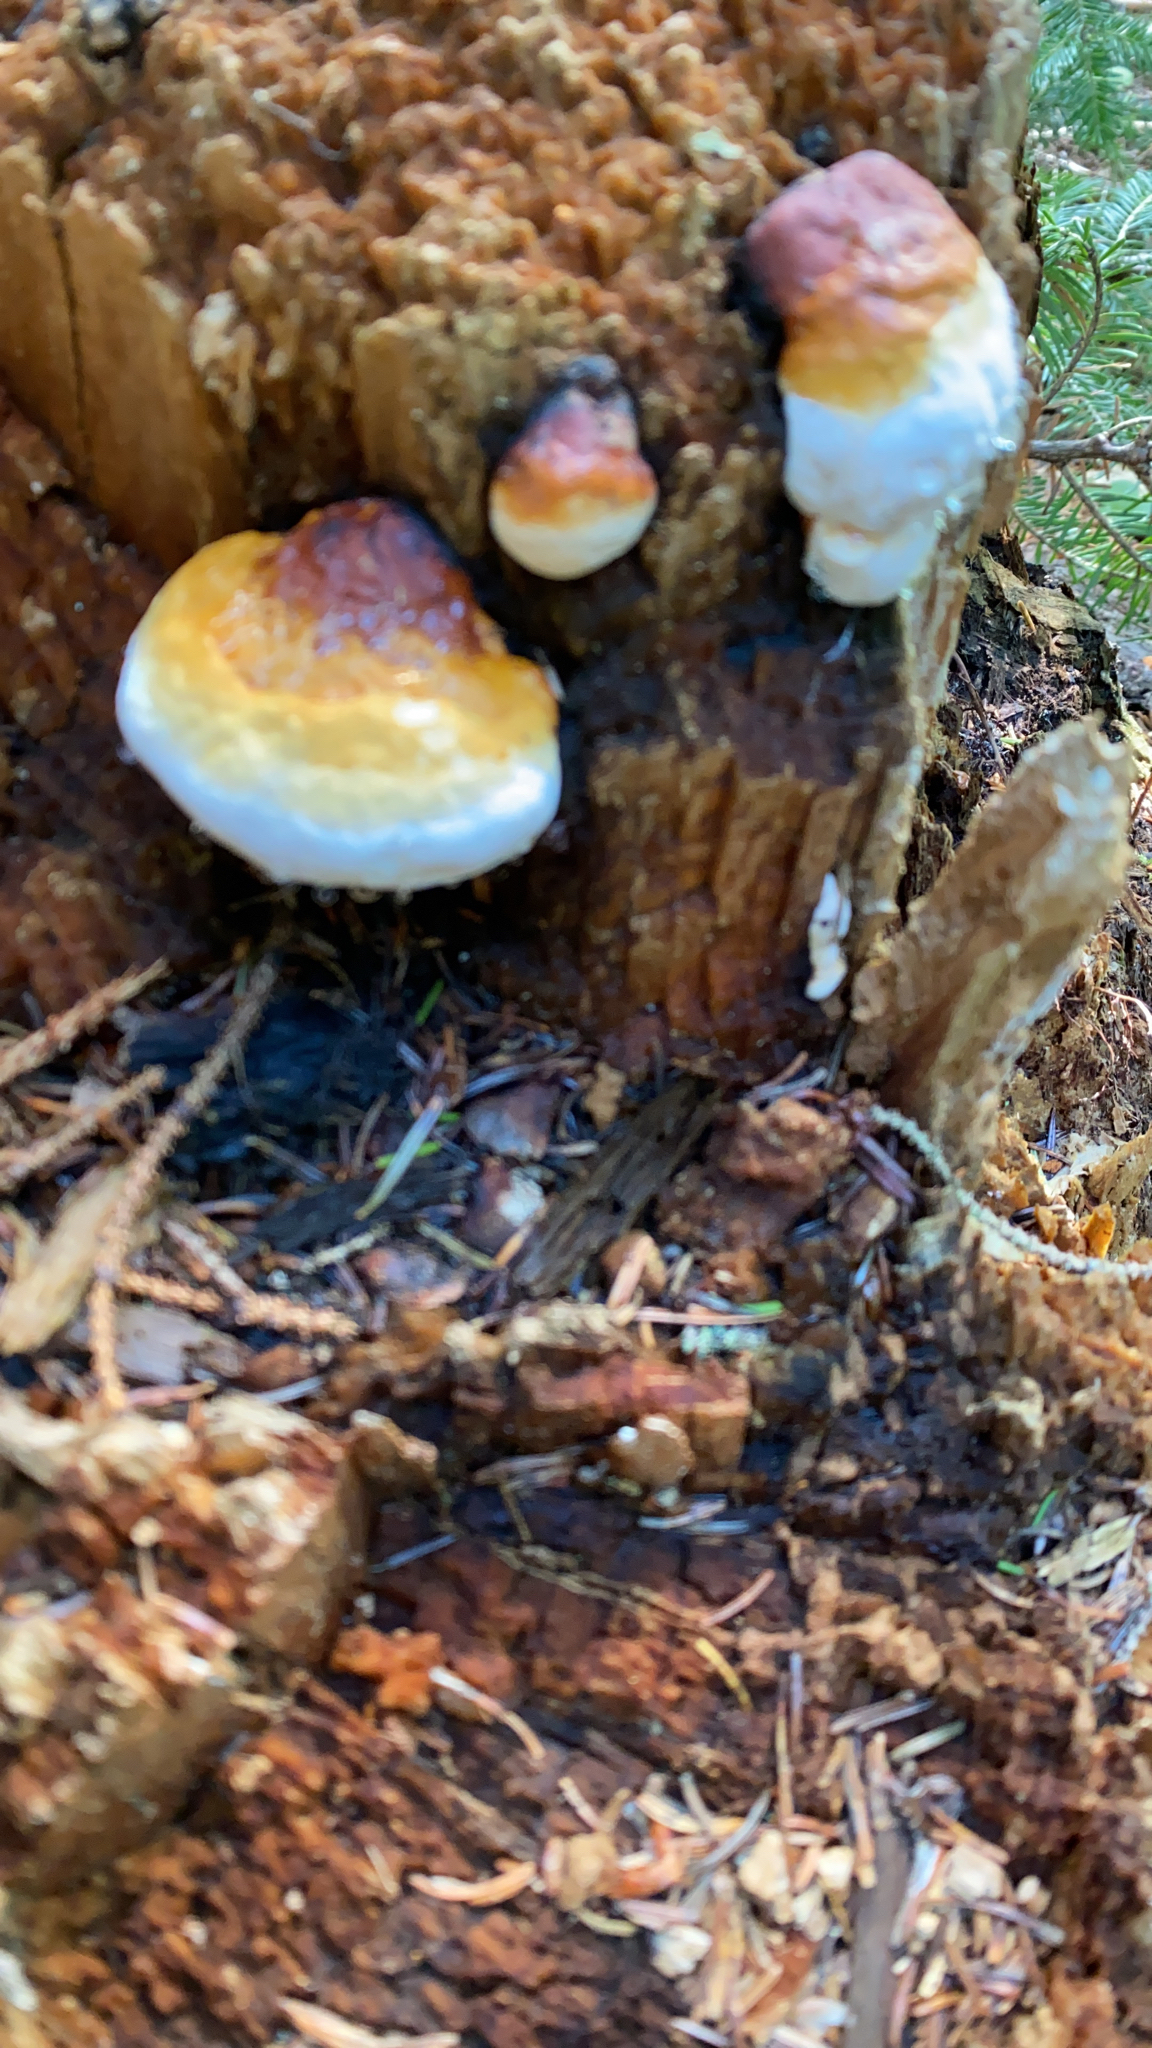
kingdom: Fungi
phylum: Basidiomycota
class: Agaricomycetes
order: Polyporales
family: Fomitopsidaceae
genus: Fomitopsis
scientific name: Fomitopsis mounceae
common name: Northern red belt
